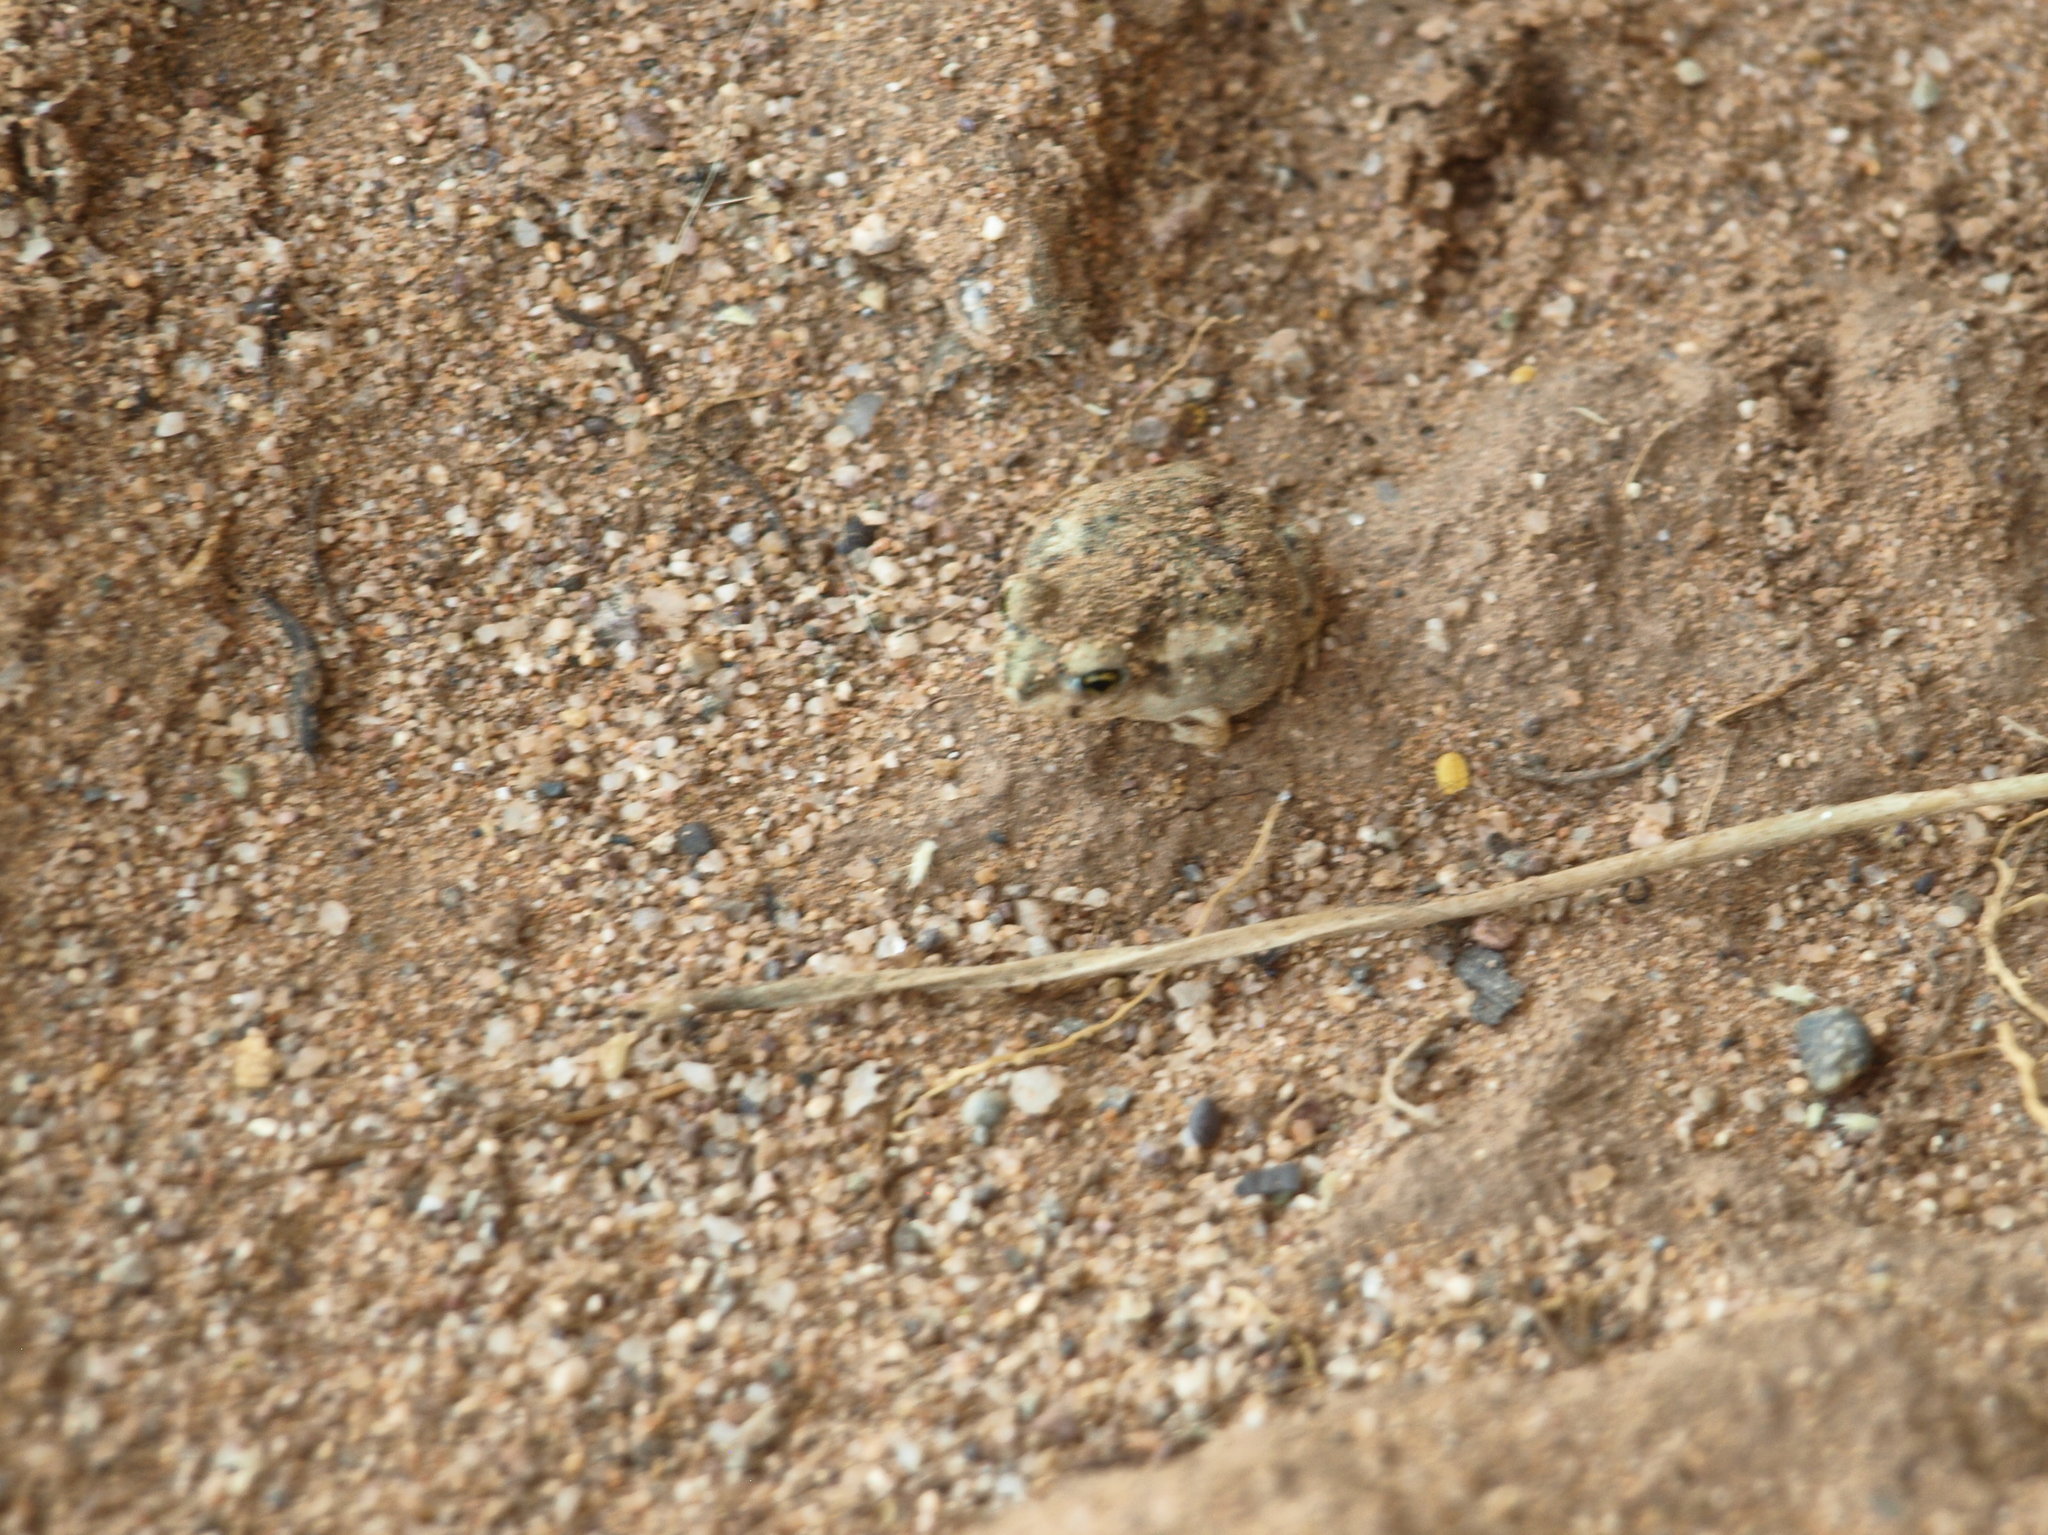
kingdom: Animalia
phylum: Chordata
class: Amphibia
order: Anura
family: Scaphiopodidae
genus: Scaphiopus
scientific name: Scaphiopus couchii
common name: Couch's spadefoot toad
